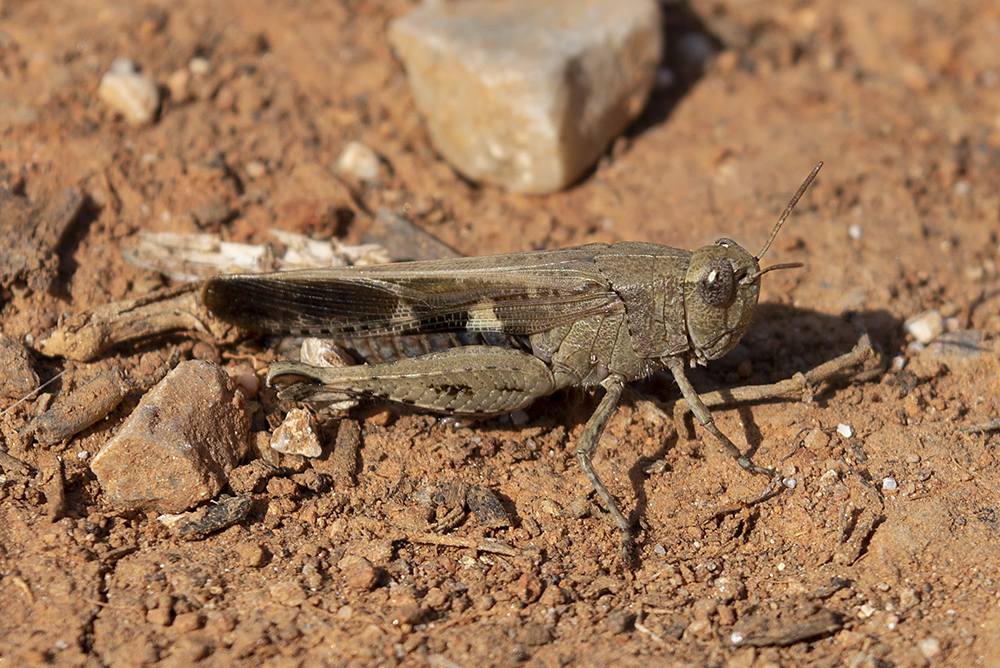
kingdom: Animalia
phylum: Arthropoda
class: Insecta
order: Orthoptera
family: Acrididae
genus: Aiolopus
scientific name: Aiolopus strepens
